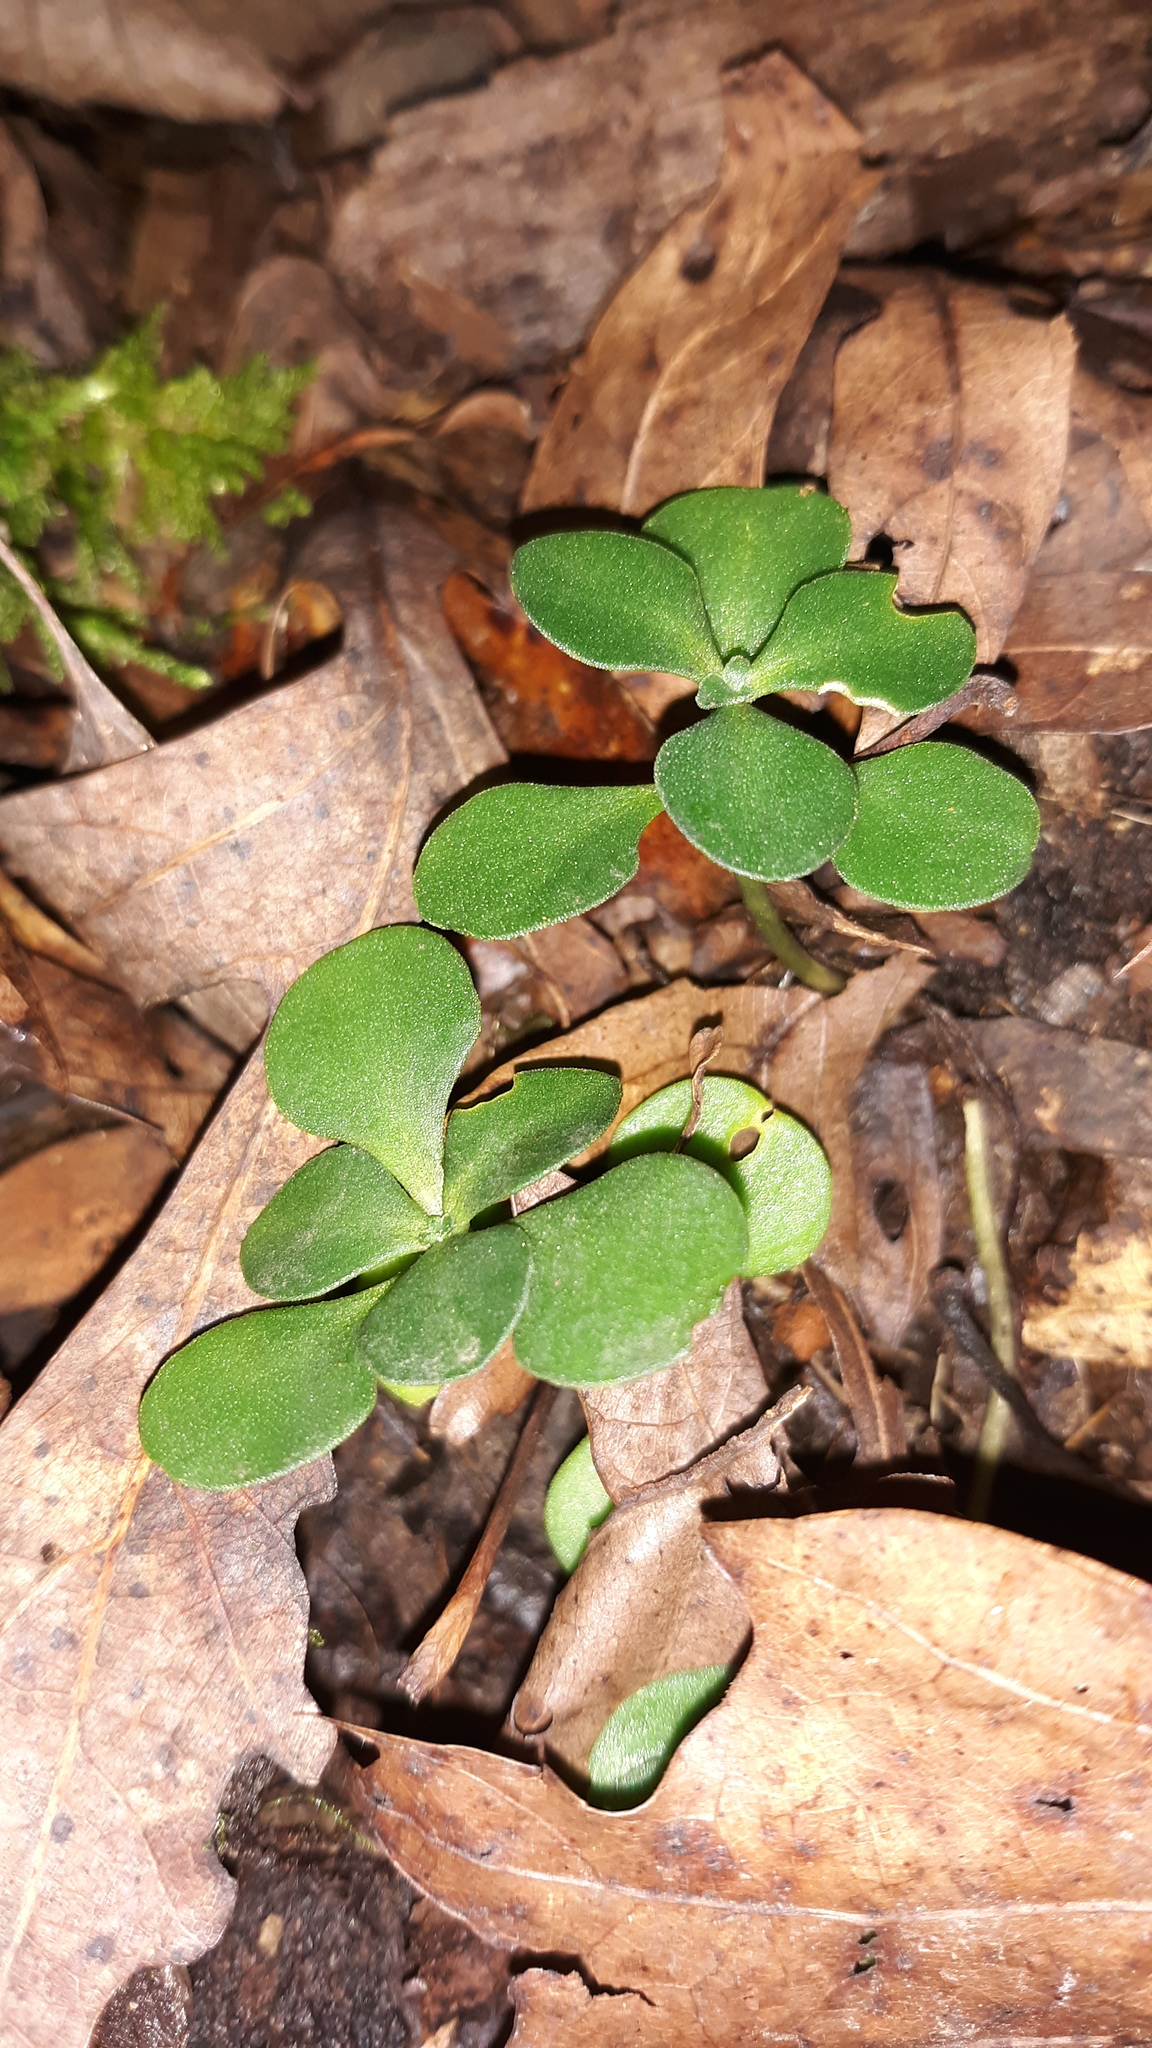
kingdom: Plantae
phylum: Tracheophyta
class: Magnoliopsida
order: Saxifragales
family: Crassulaceae
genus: Sedum
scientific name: Sedum ternatum
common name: Wild stonecrop
